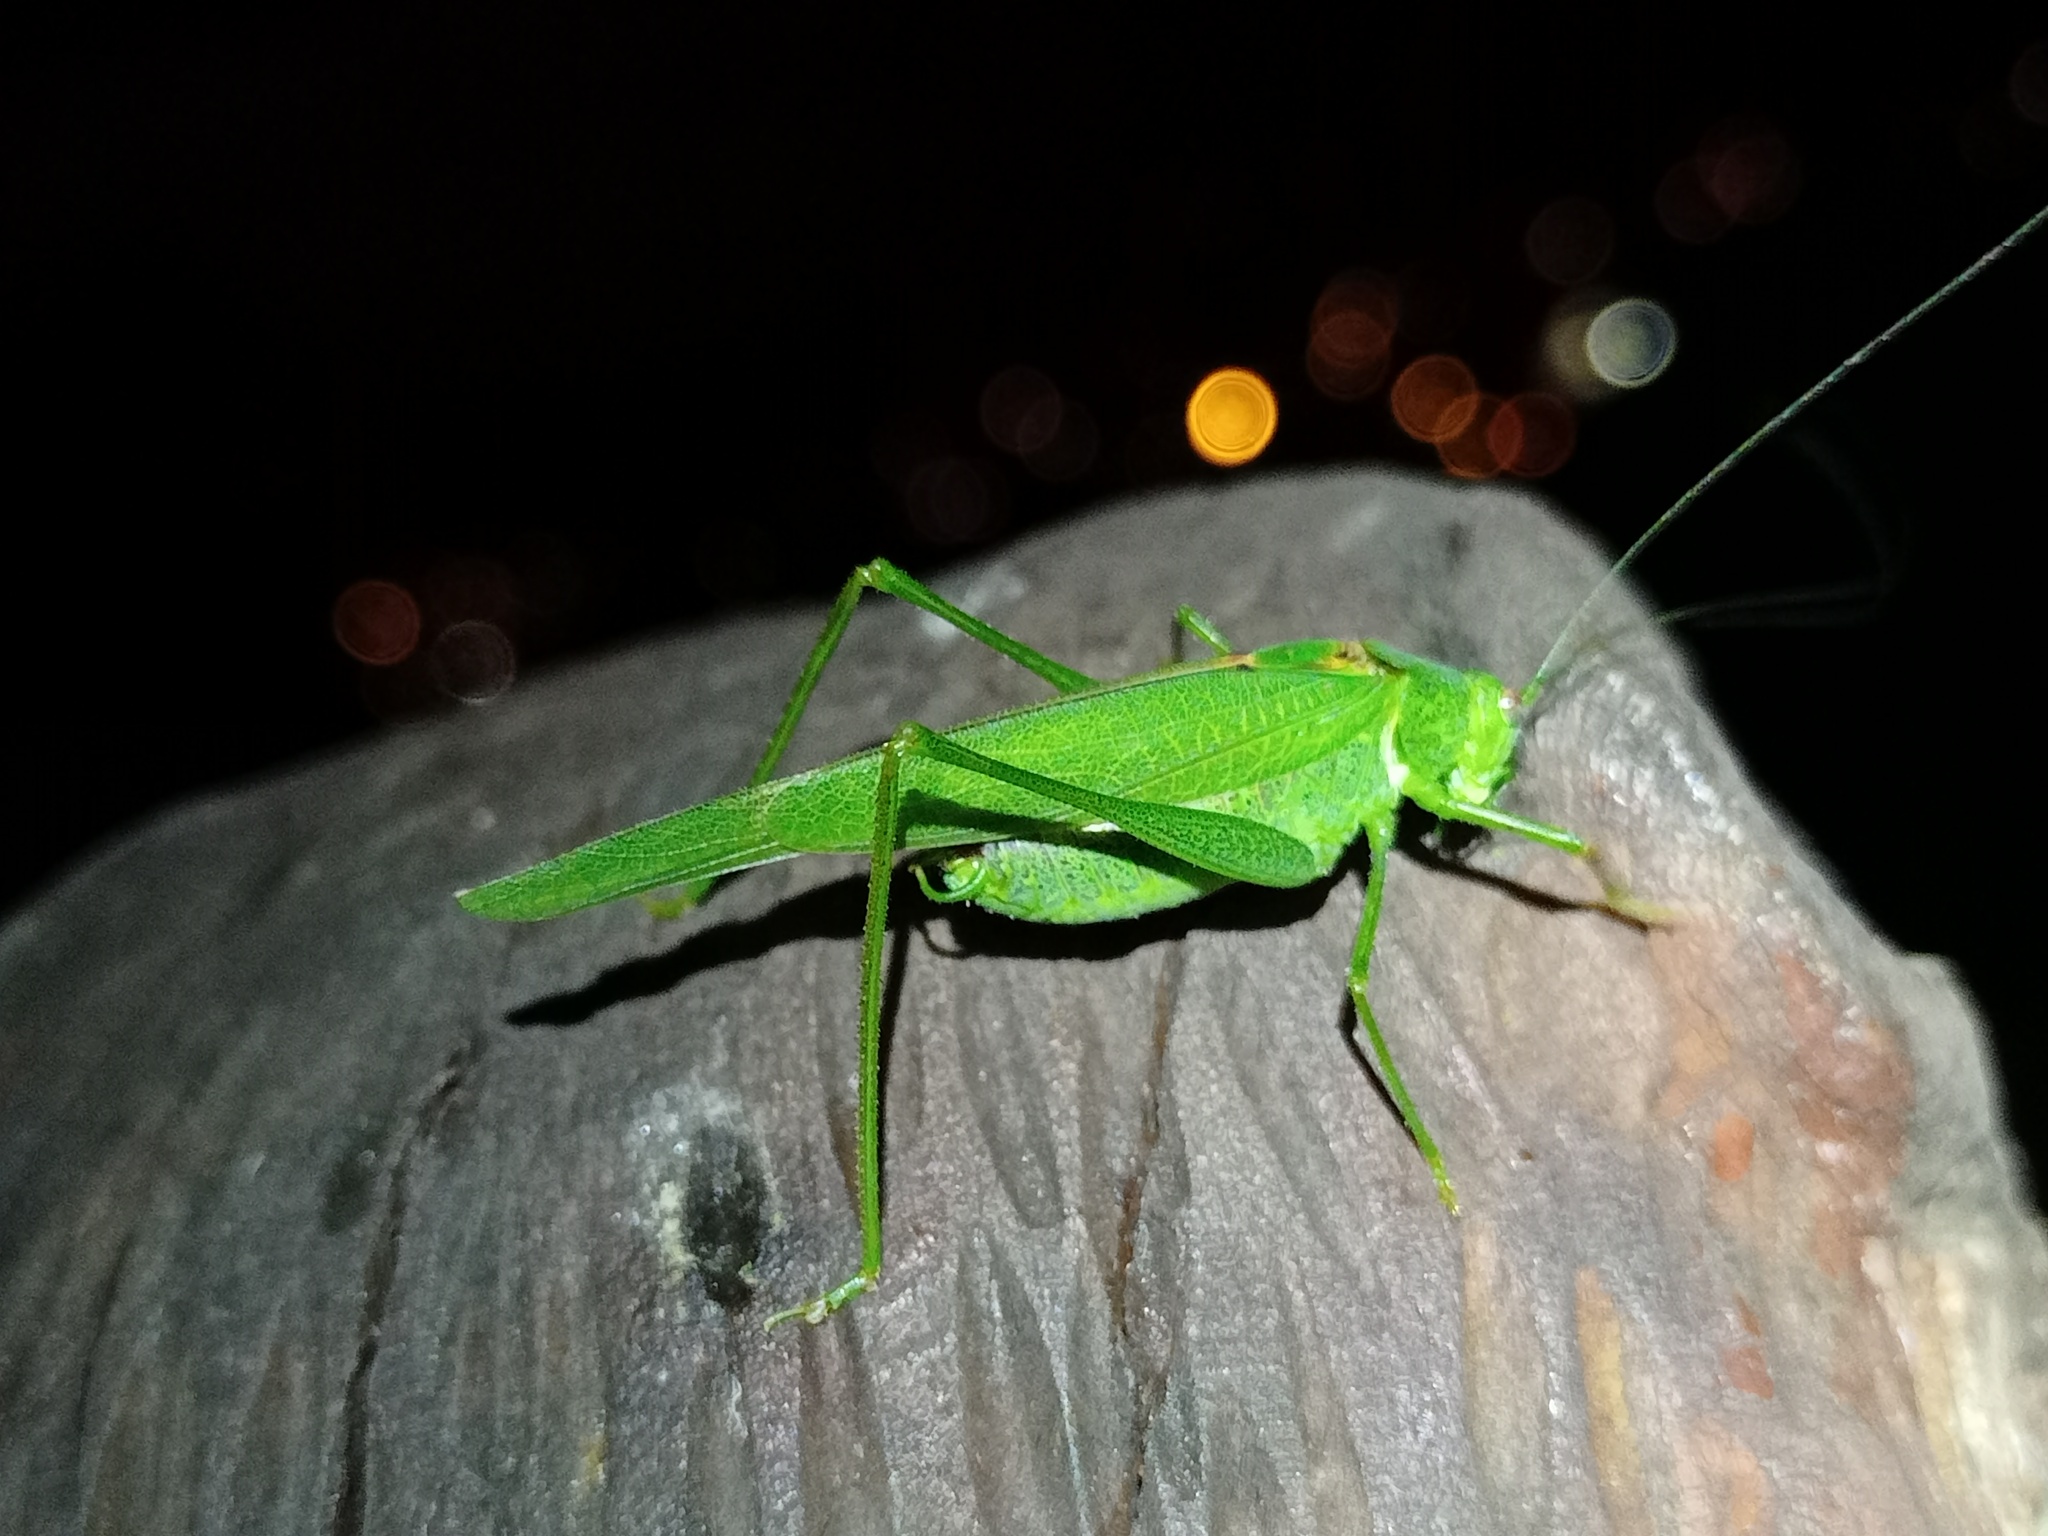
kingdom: Animalia
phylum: Arthropoda
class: Insecta
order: Orthoptera
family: Tettigoniidae
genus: Phaneroptera
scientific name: Phaneroptera nana
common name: Southern sickle bush-cricket
